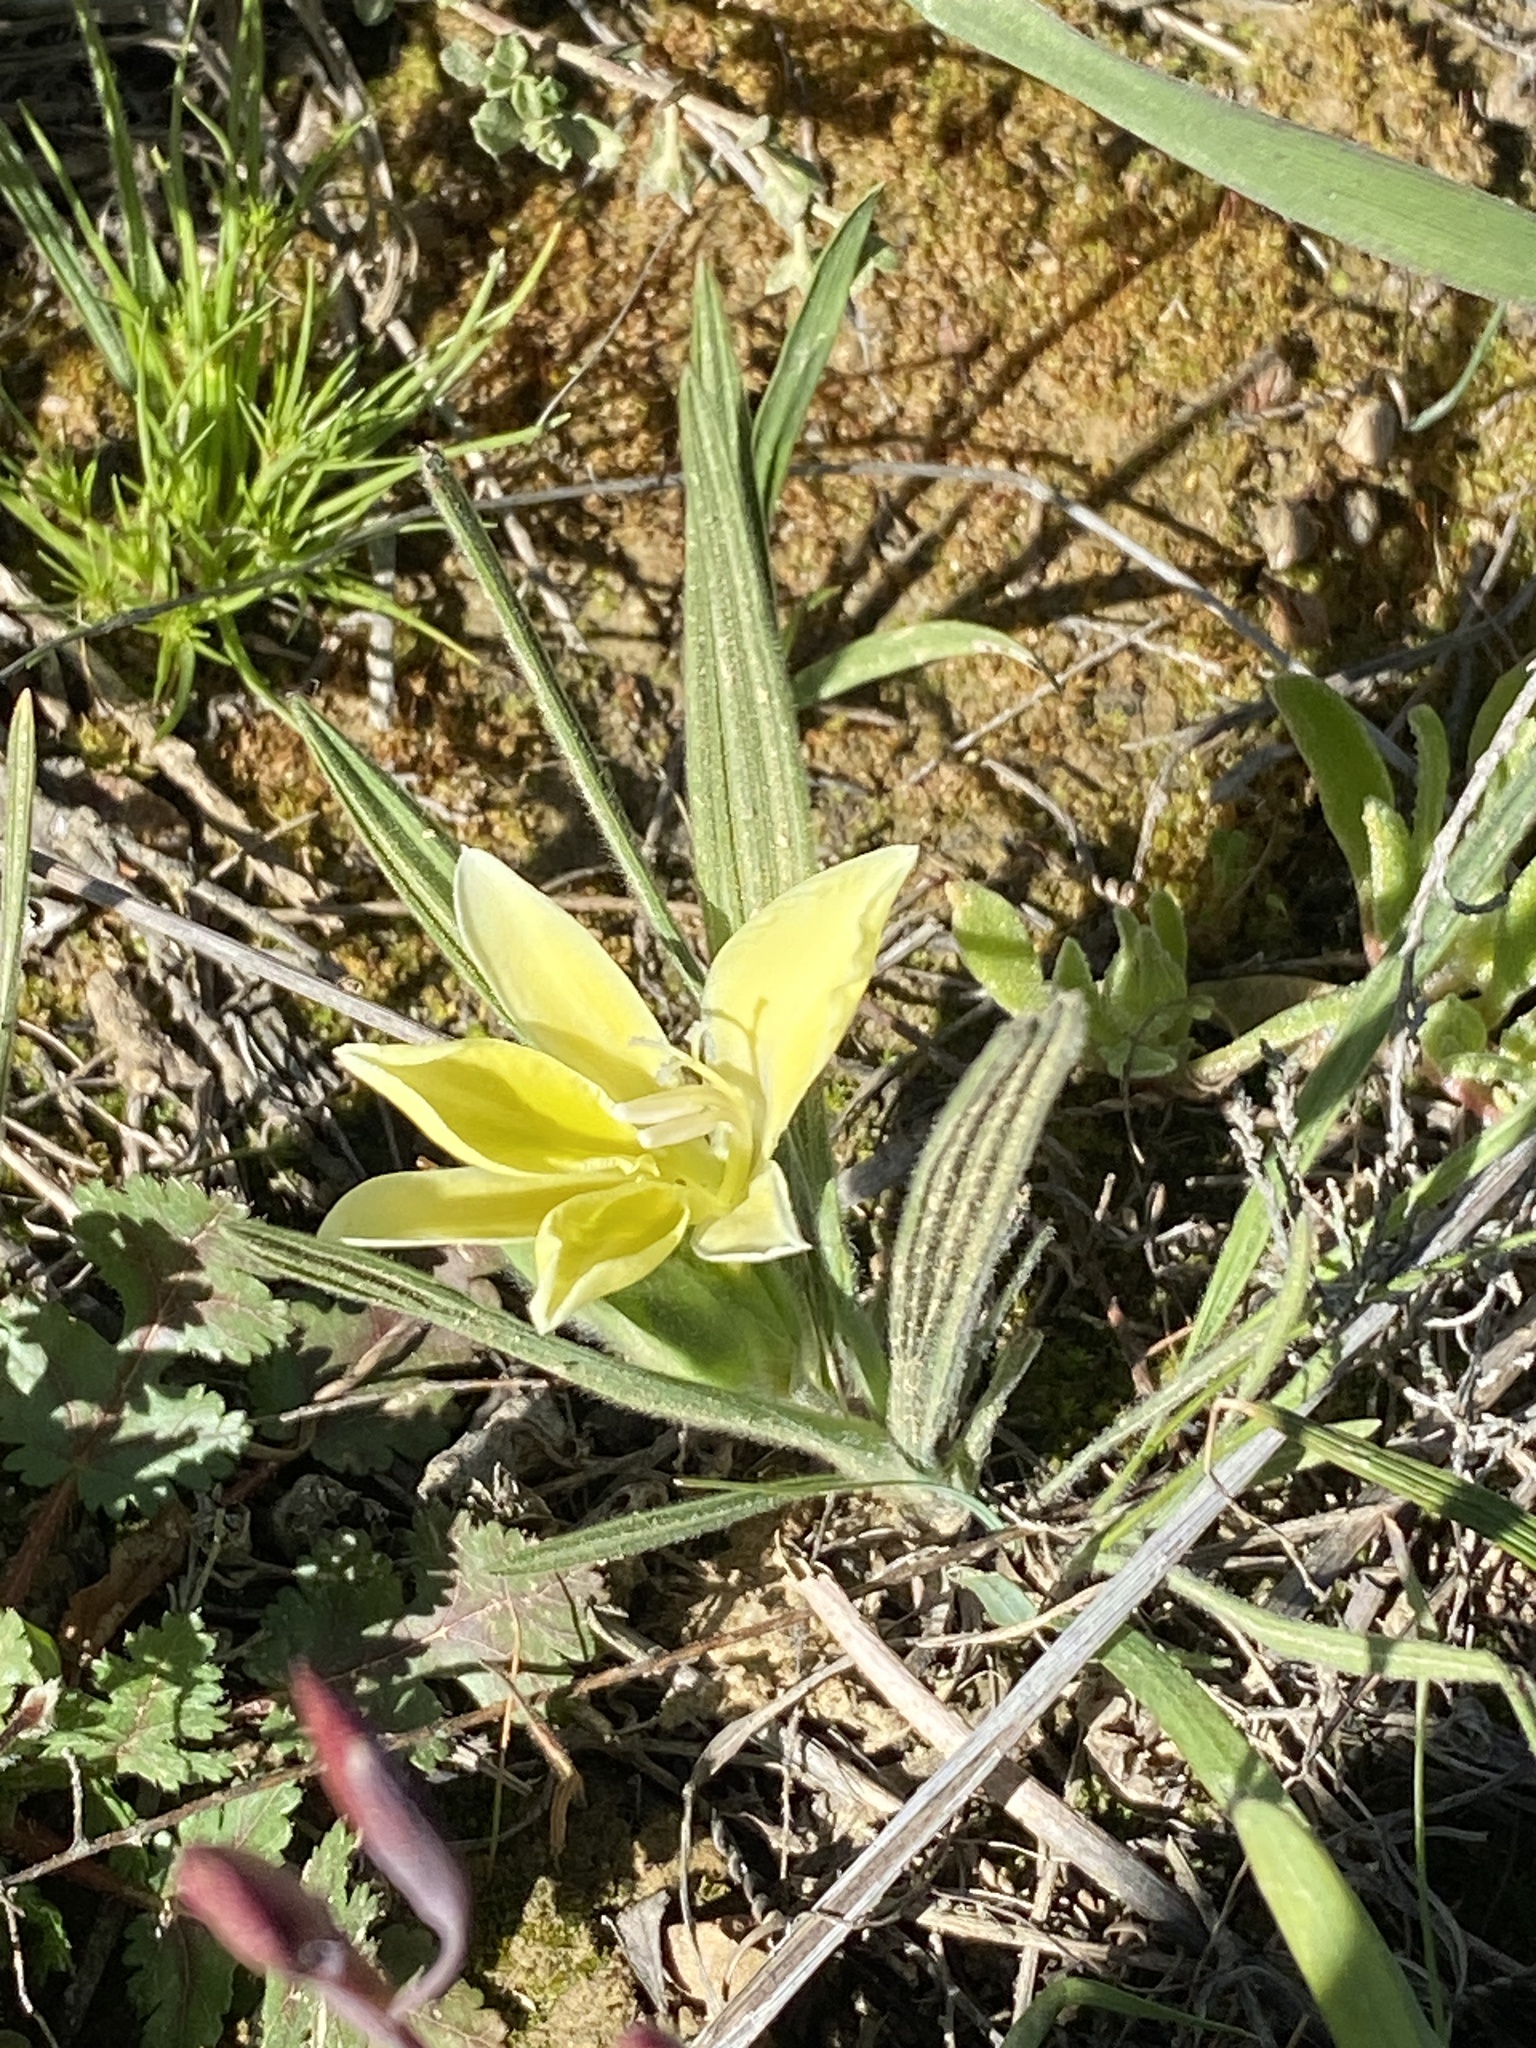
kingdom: Plantae
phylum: Tracheophyta
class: Liliopsida
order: Asparagales
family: Iridaceae
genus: Babiana
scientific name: Babiana vanzijliae
